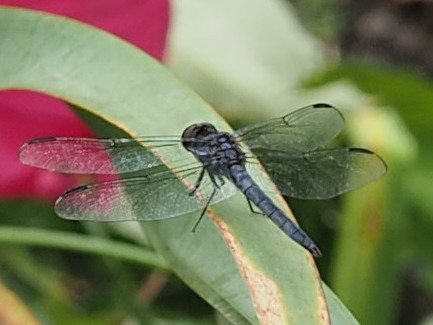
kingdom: Animalia
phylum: Arthropoda
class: Insecta
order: Odonata
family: Libellulidae
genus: Libellula
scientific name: Libellula incesta
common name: Slaty skimmer
